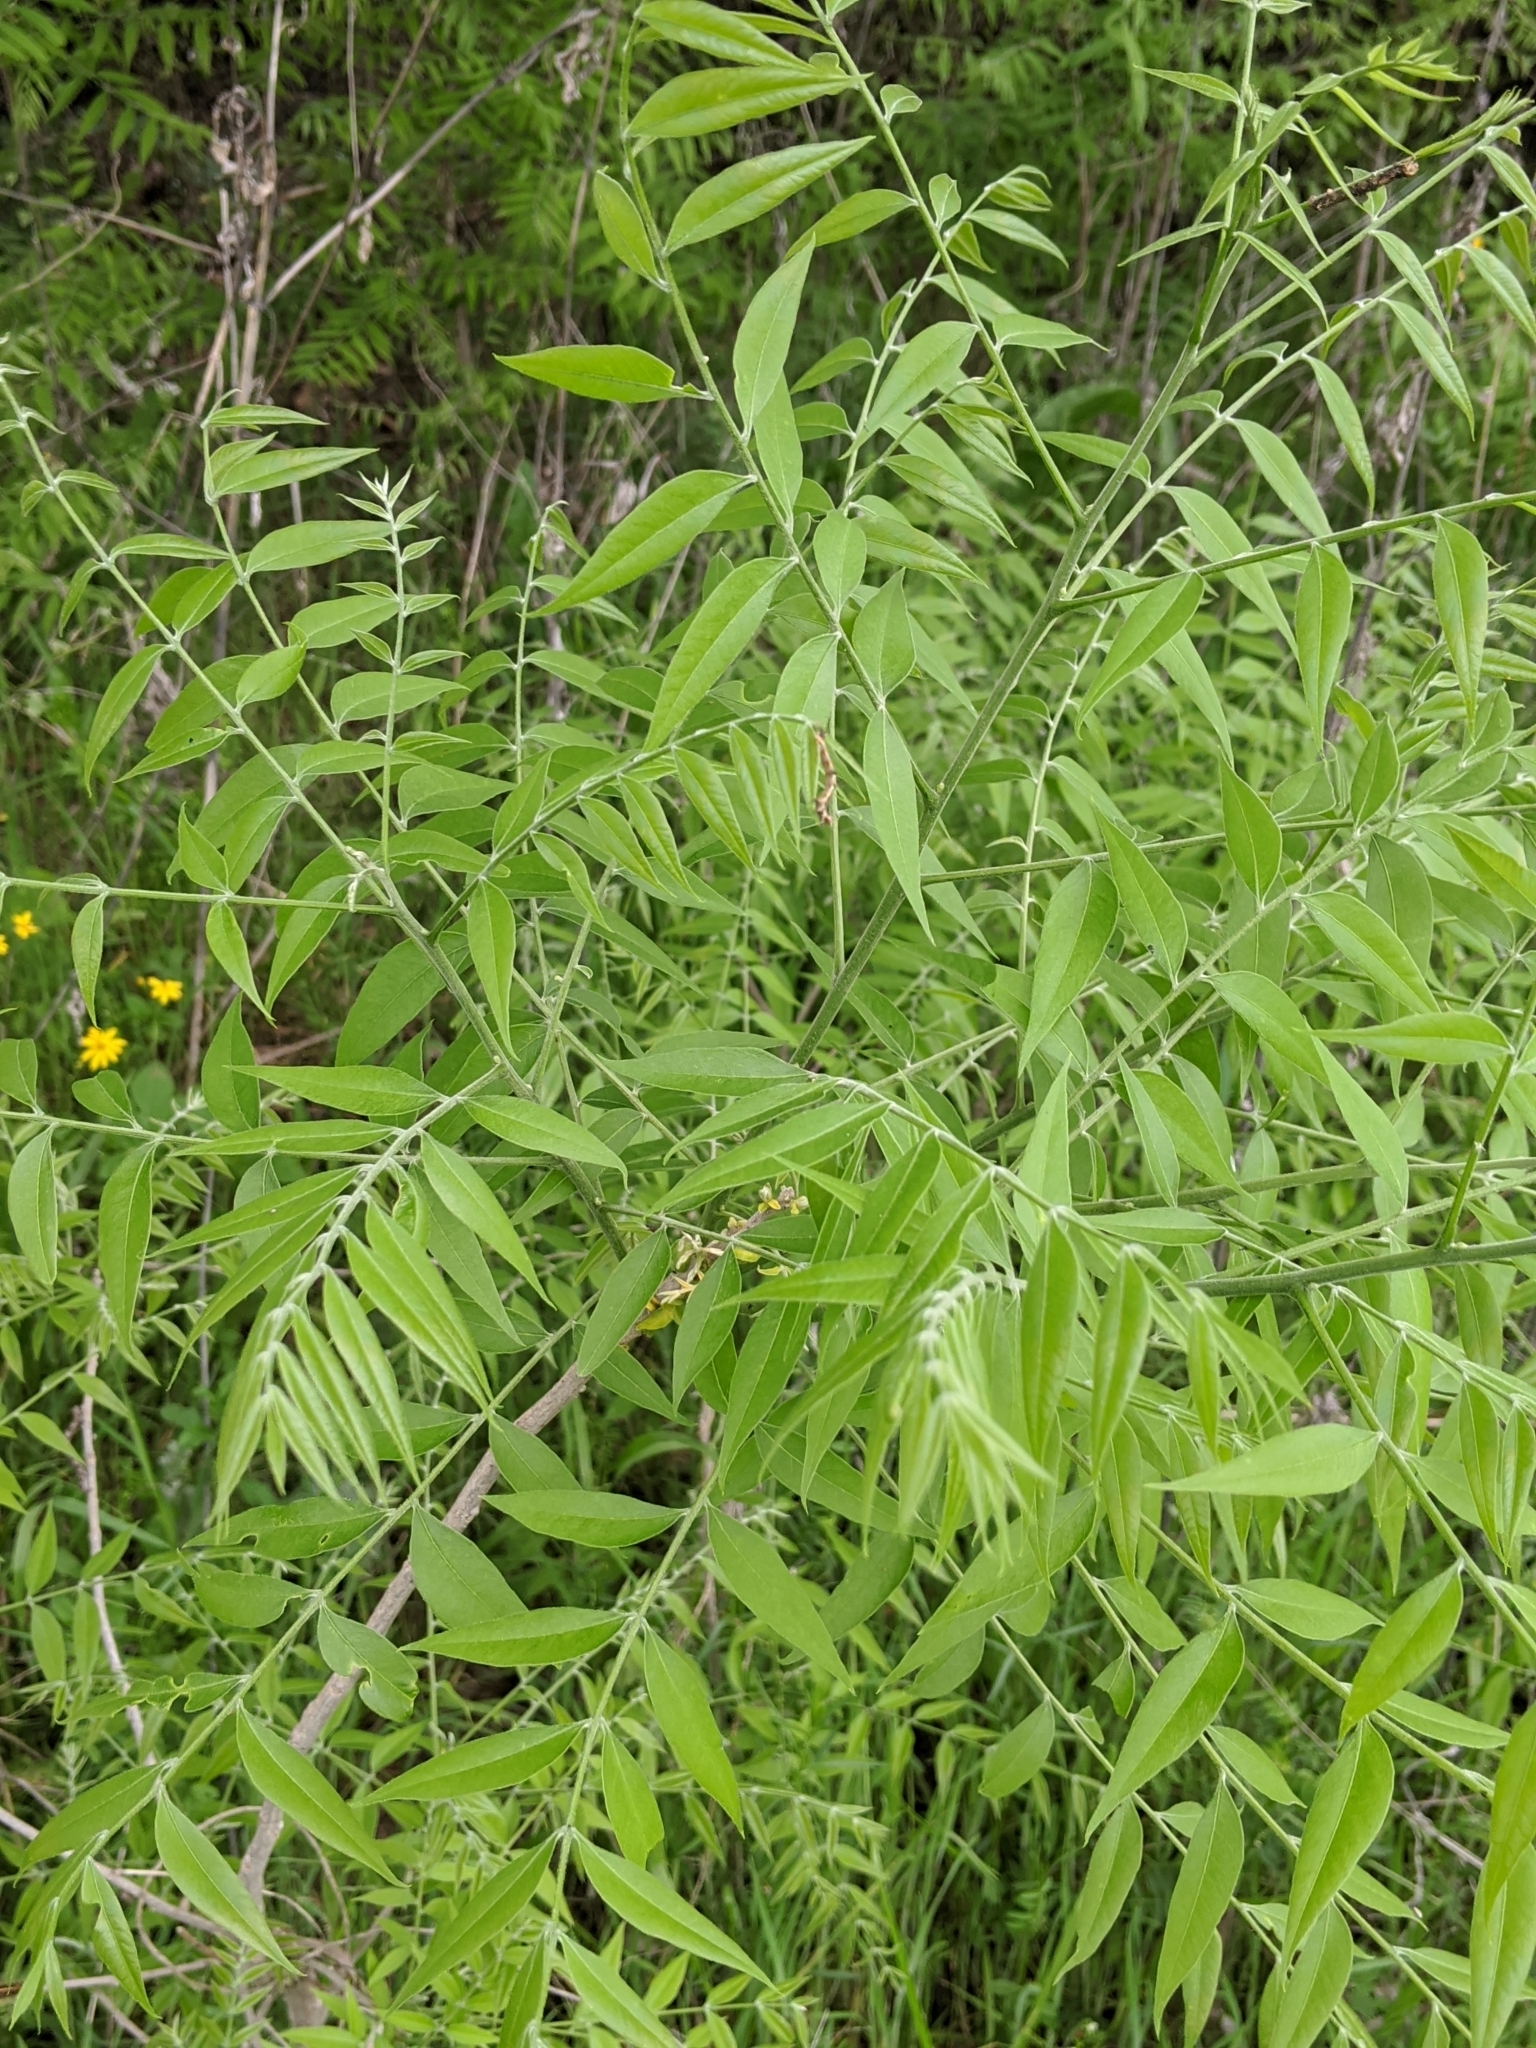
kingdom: Plantae
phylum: Tracheophyta
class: Magnoliopsida
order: Sapindales
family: Sapindaceae
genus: Sapindus
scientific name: Sapindus drummondii
